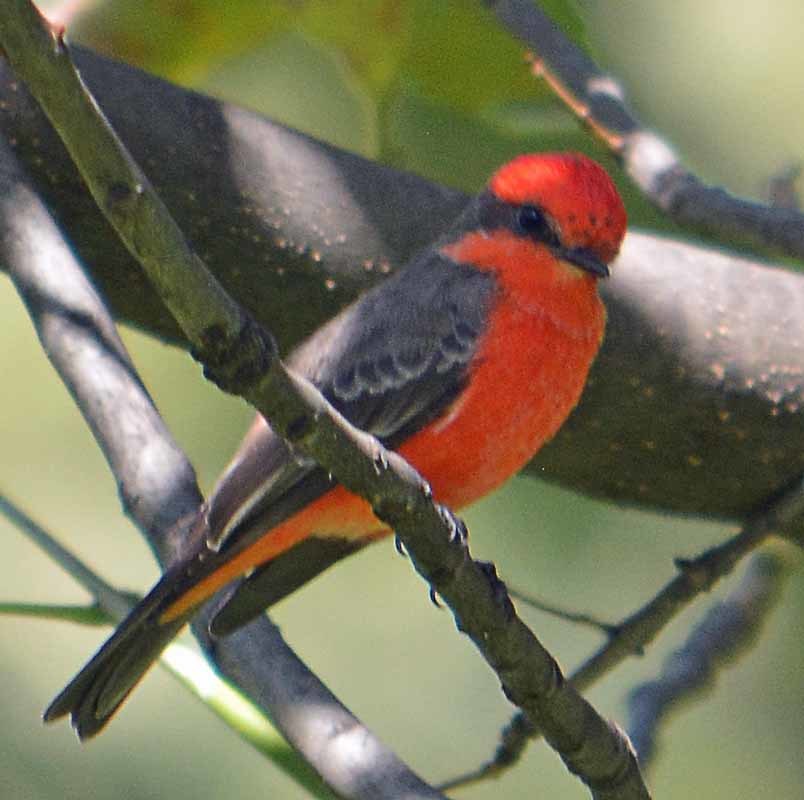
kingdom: Animalia
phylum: Chordata
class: Aves
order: Passeriformes
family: Tyrannidae
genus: Pyrocephalus
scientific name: Pyrocephalus rubinus
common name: Vermilion flycatcher
